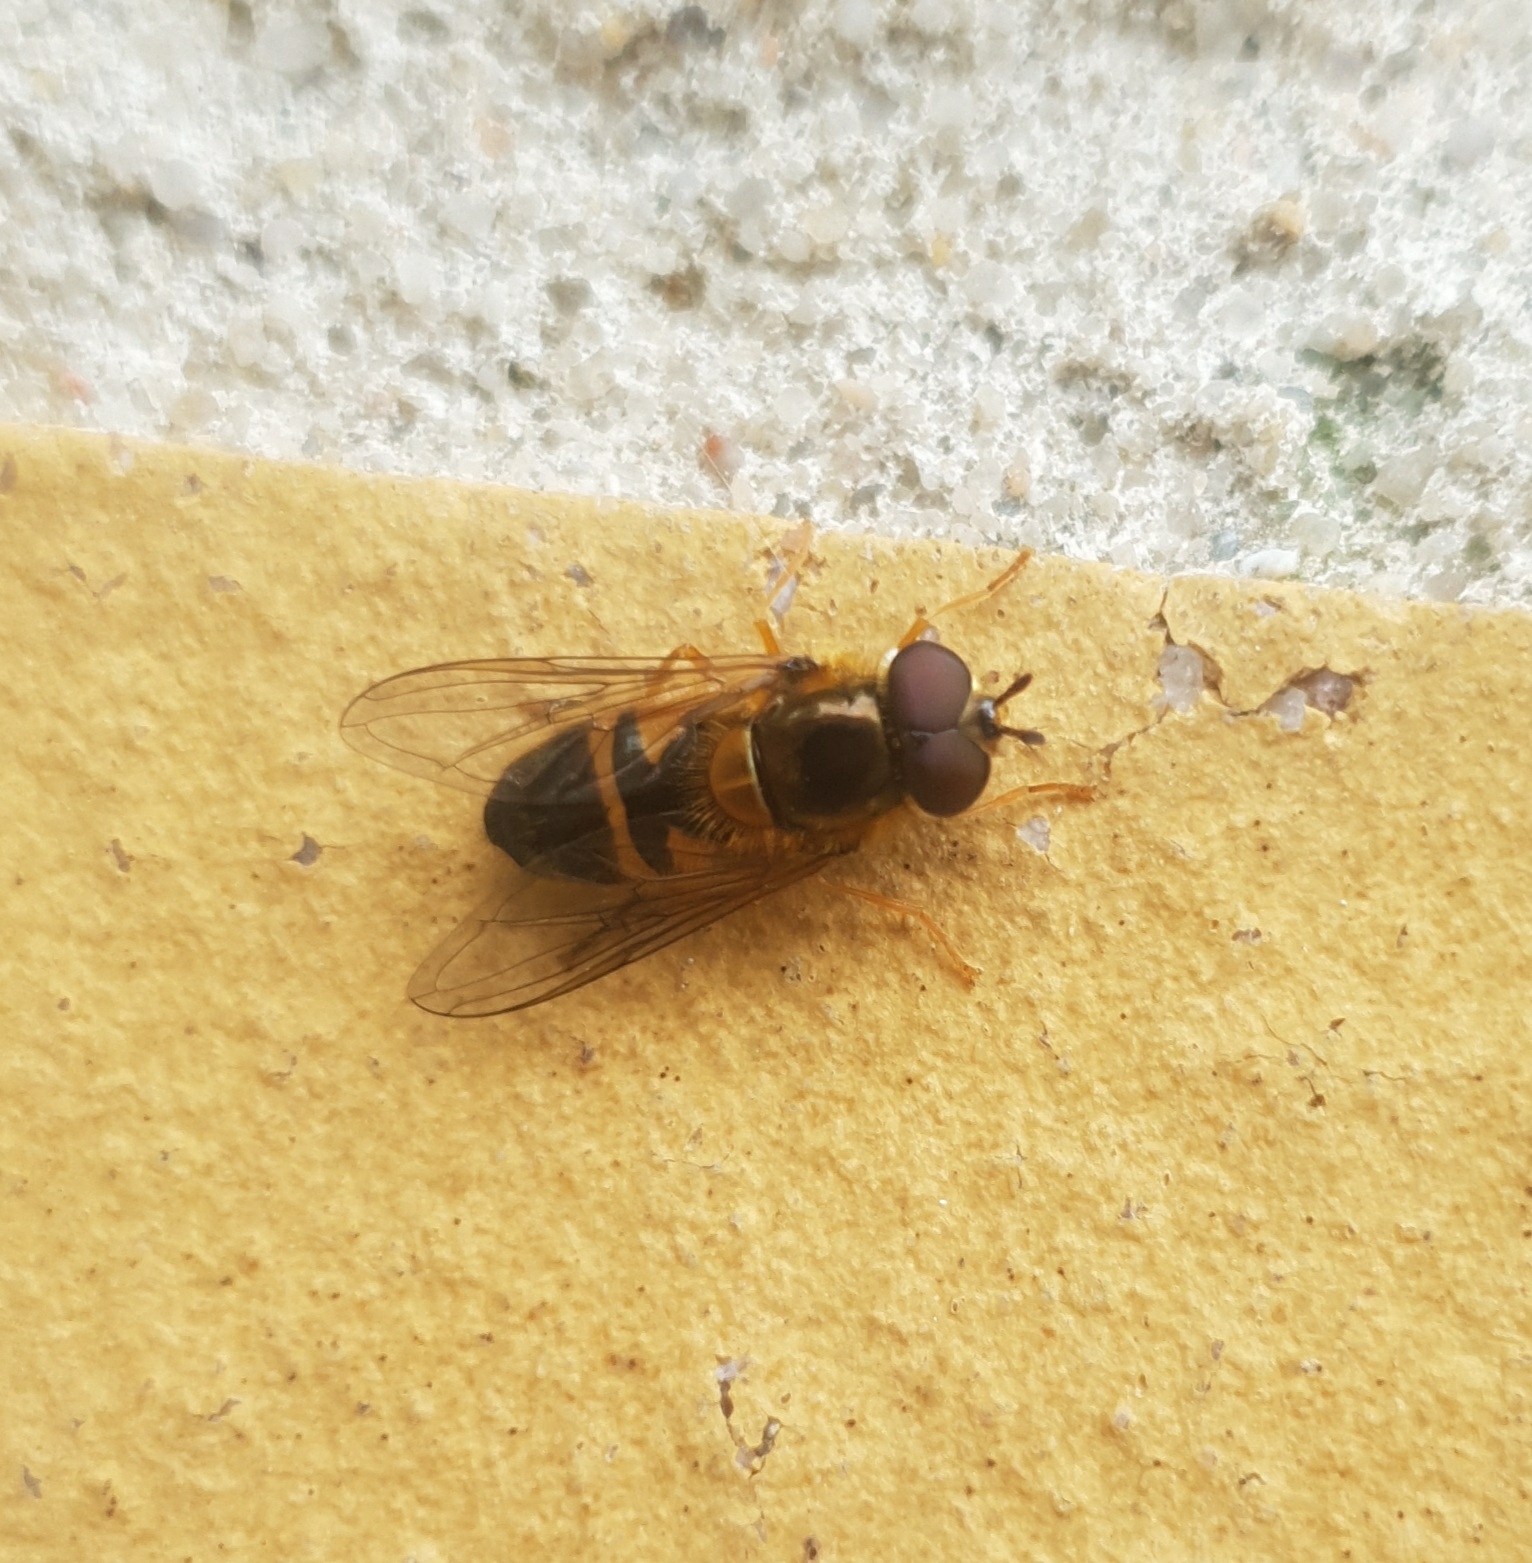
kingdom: Animalia
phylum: Arthropoda
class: Insecta
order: Diptera
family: Syrphidae
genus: Epistrophe
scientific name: Epistrophe eligans
